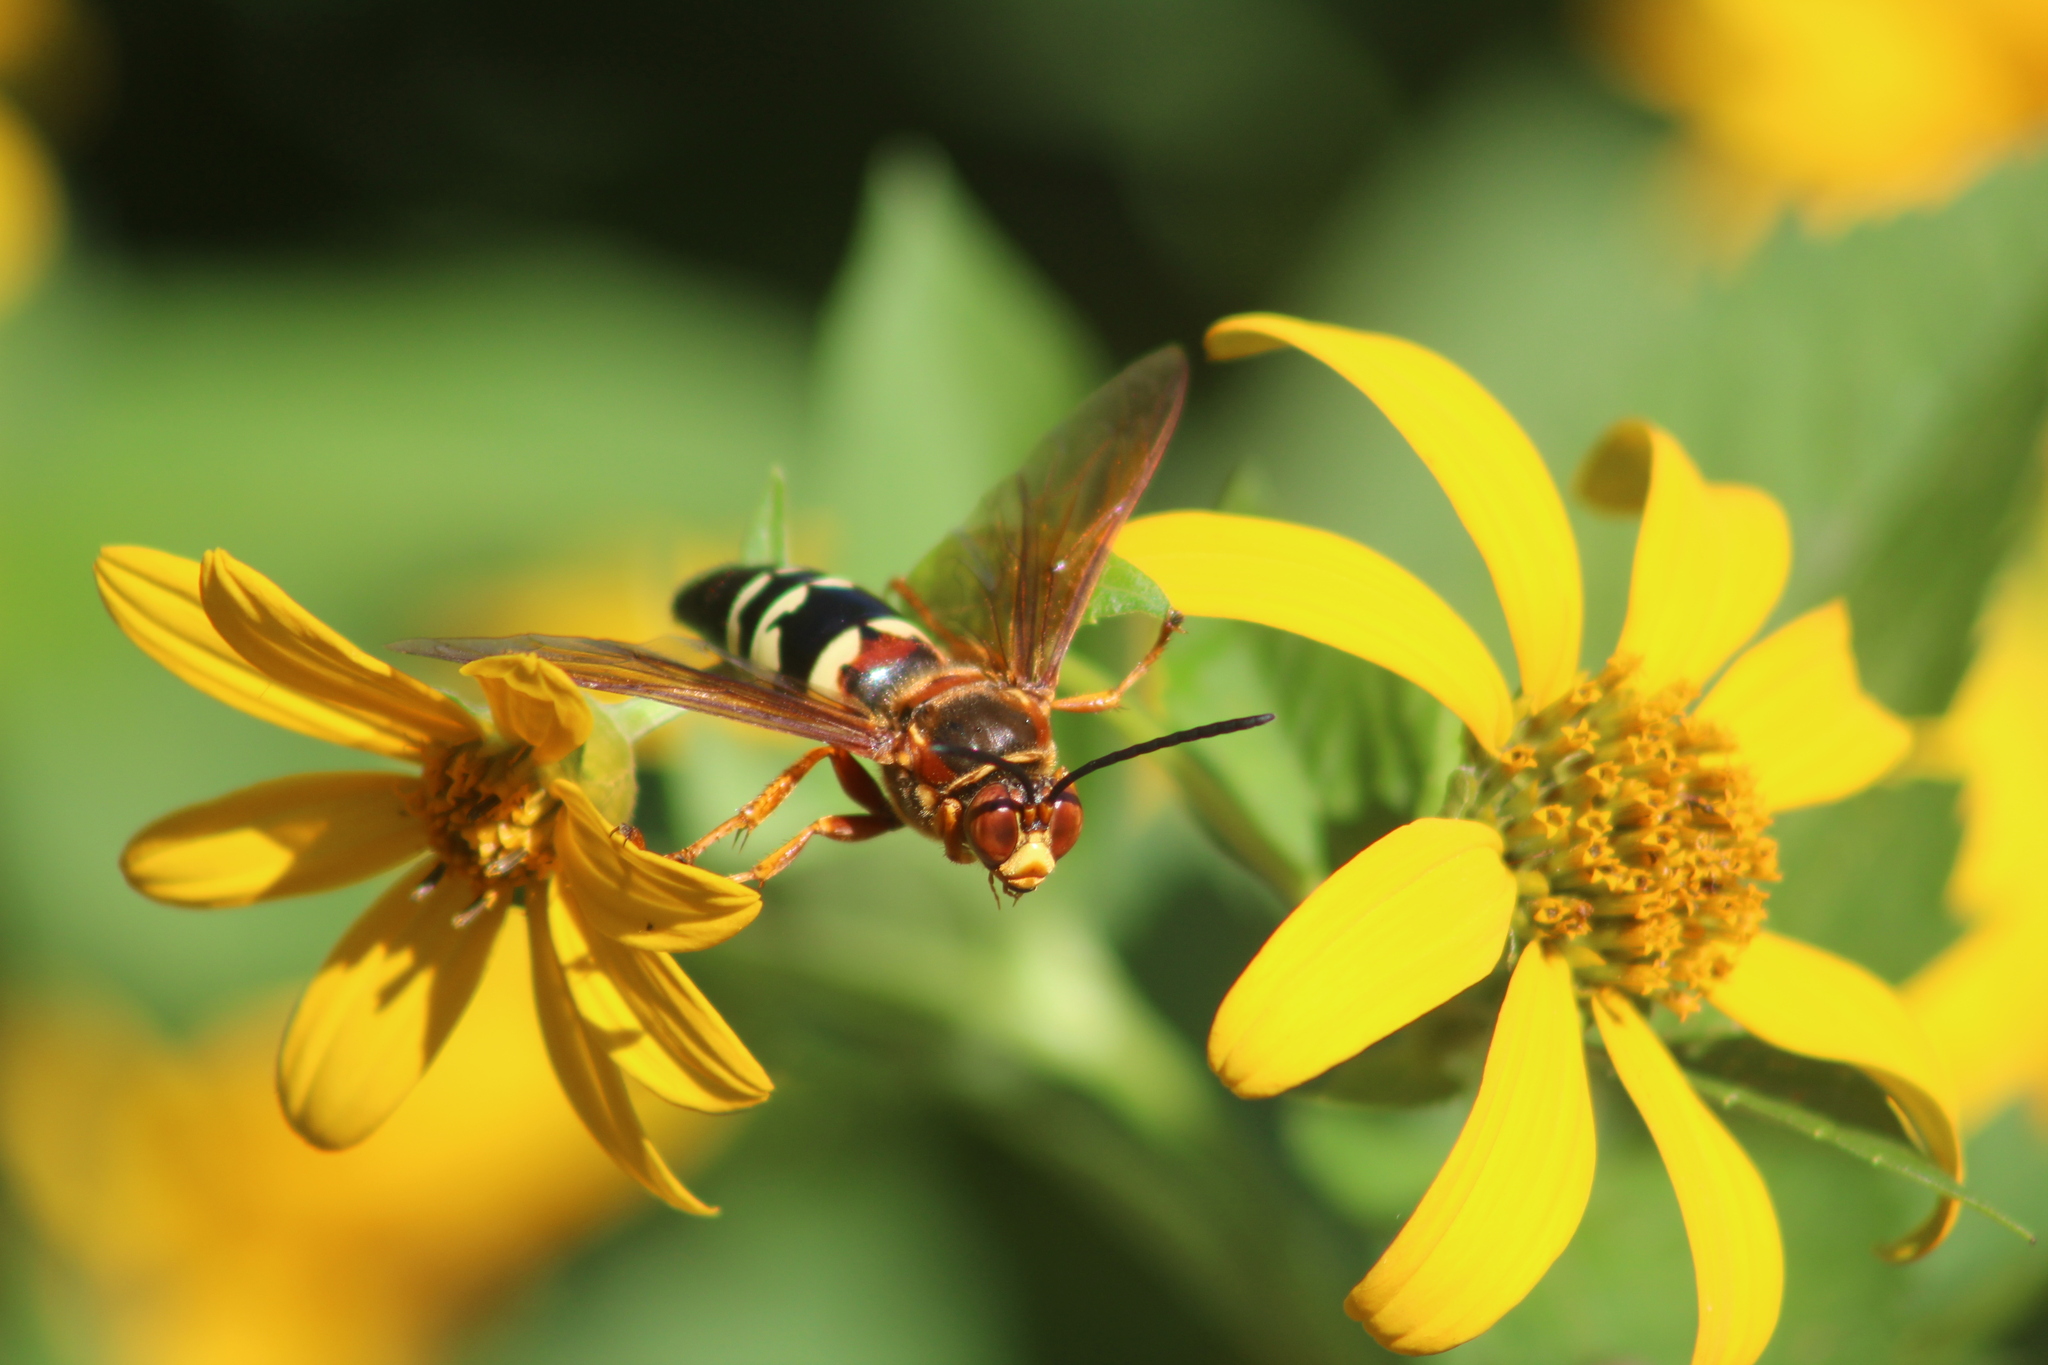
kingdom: Animalia
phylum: Arthropoda
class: Insecta
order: Hymenoptera
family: Crabronidae
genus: Sphecius
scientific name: Sphecius speciosus
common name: Cicada killer
